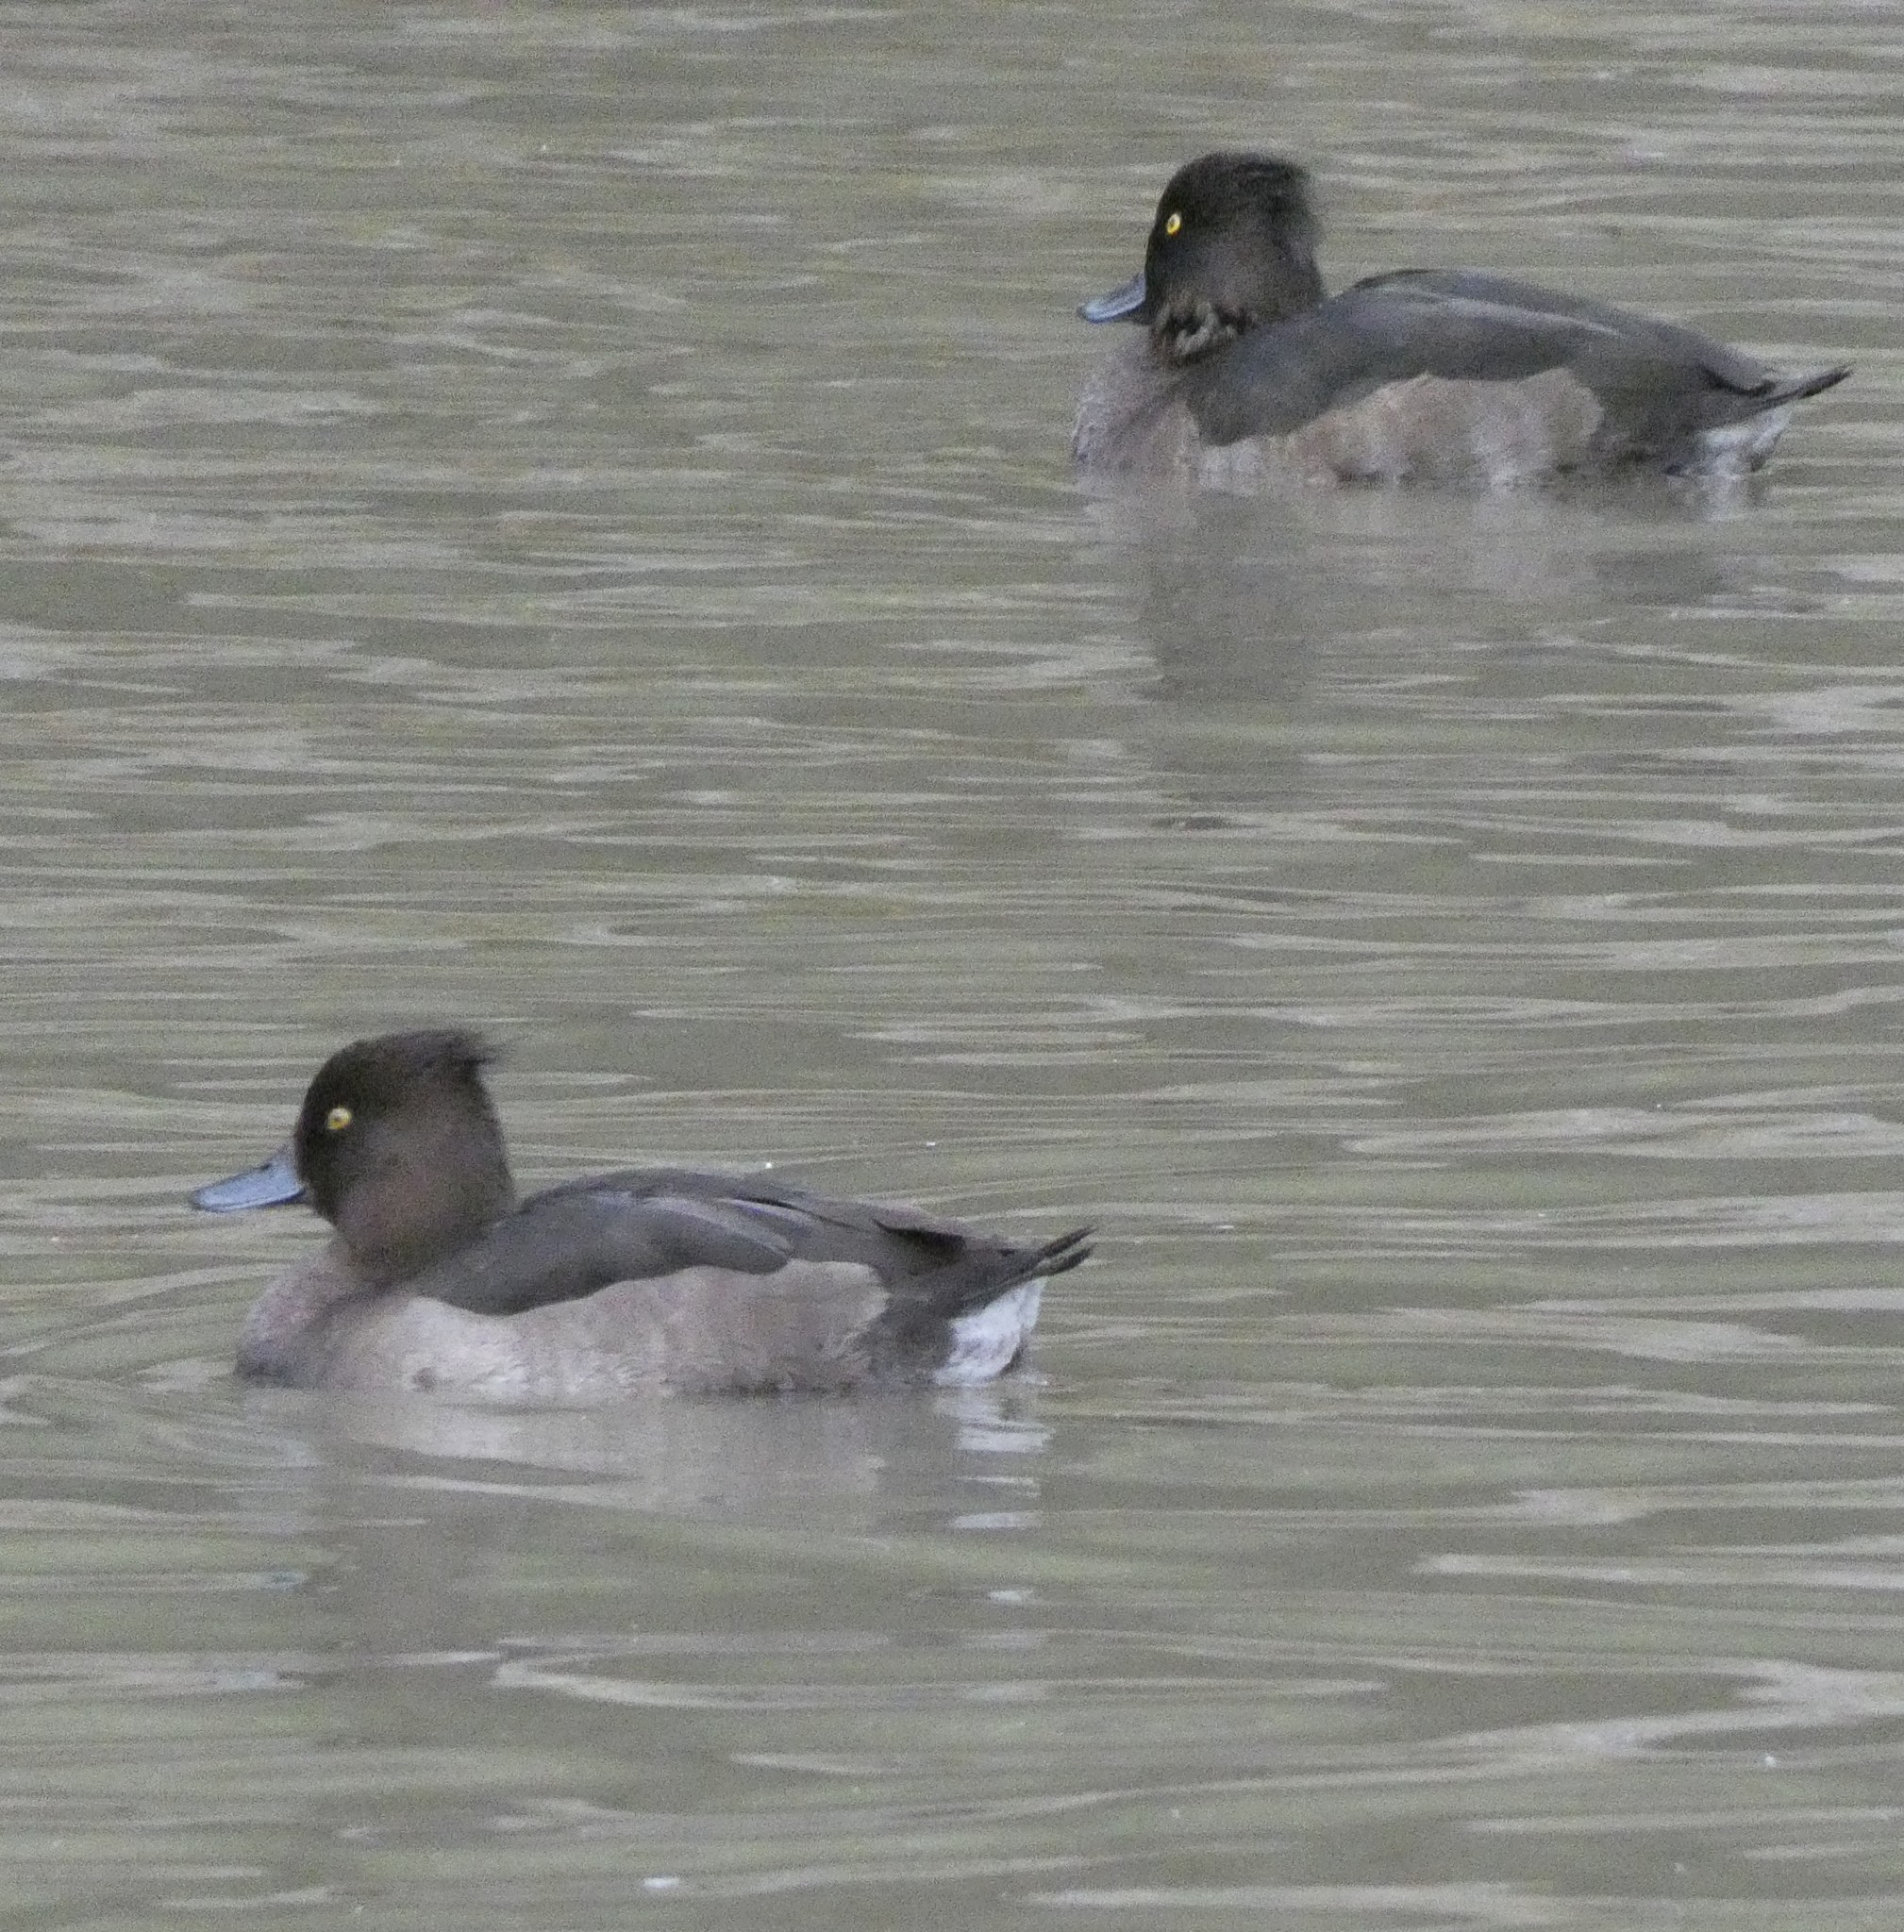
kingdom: Animalia
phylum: Chordata
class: Aves
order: Anseriformes
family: Anatidae
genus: Aythya
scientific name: Aythya fuligula
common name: Tufted duck
